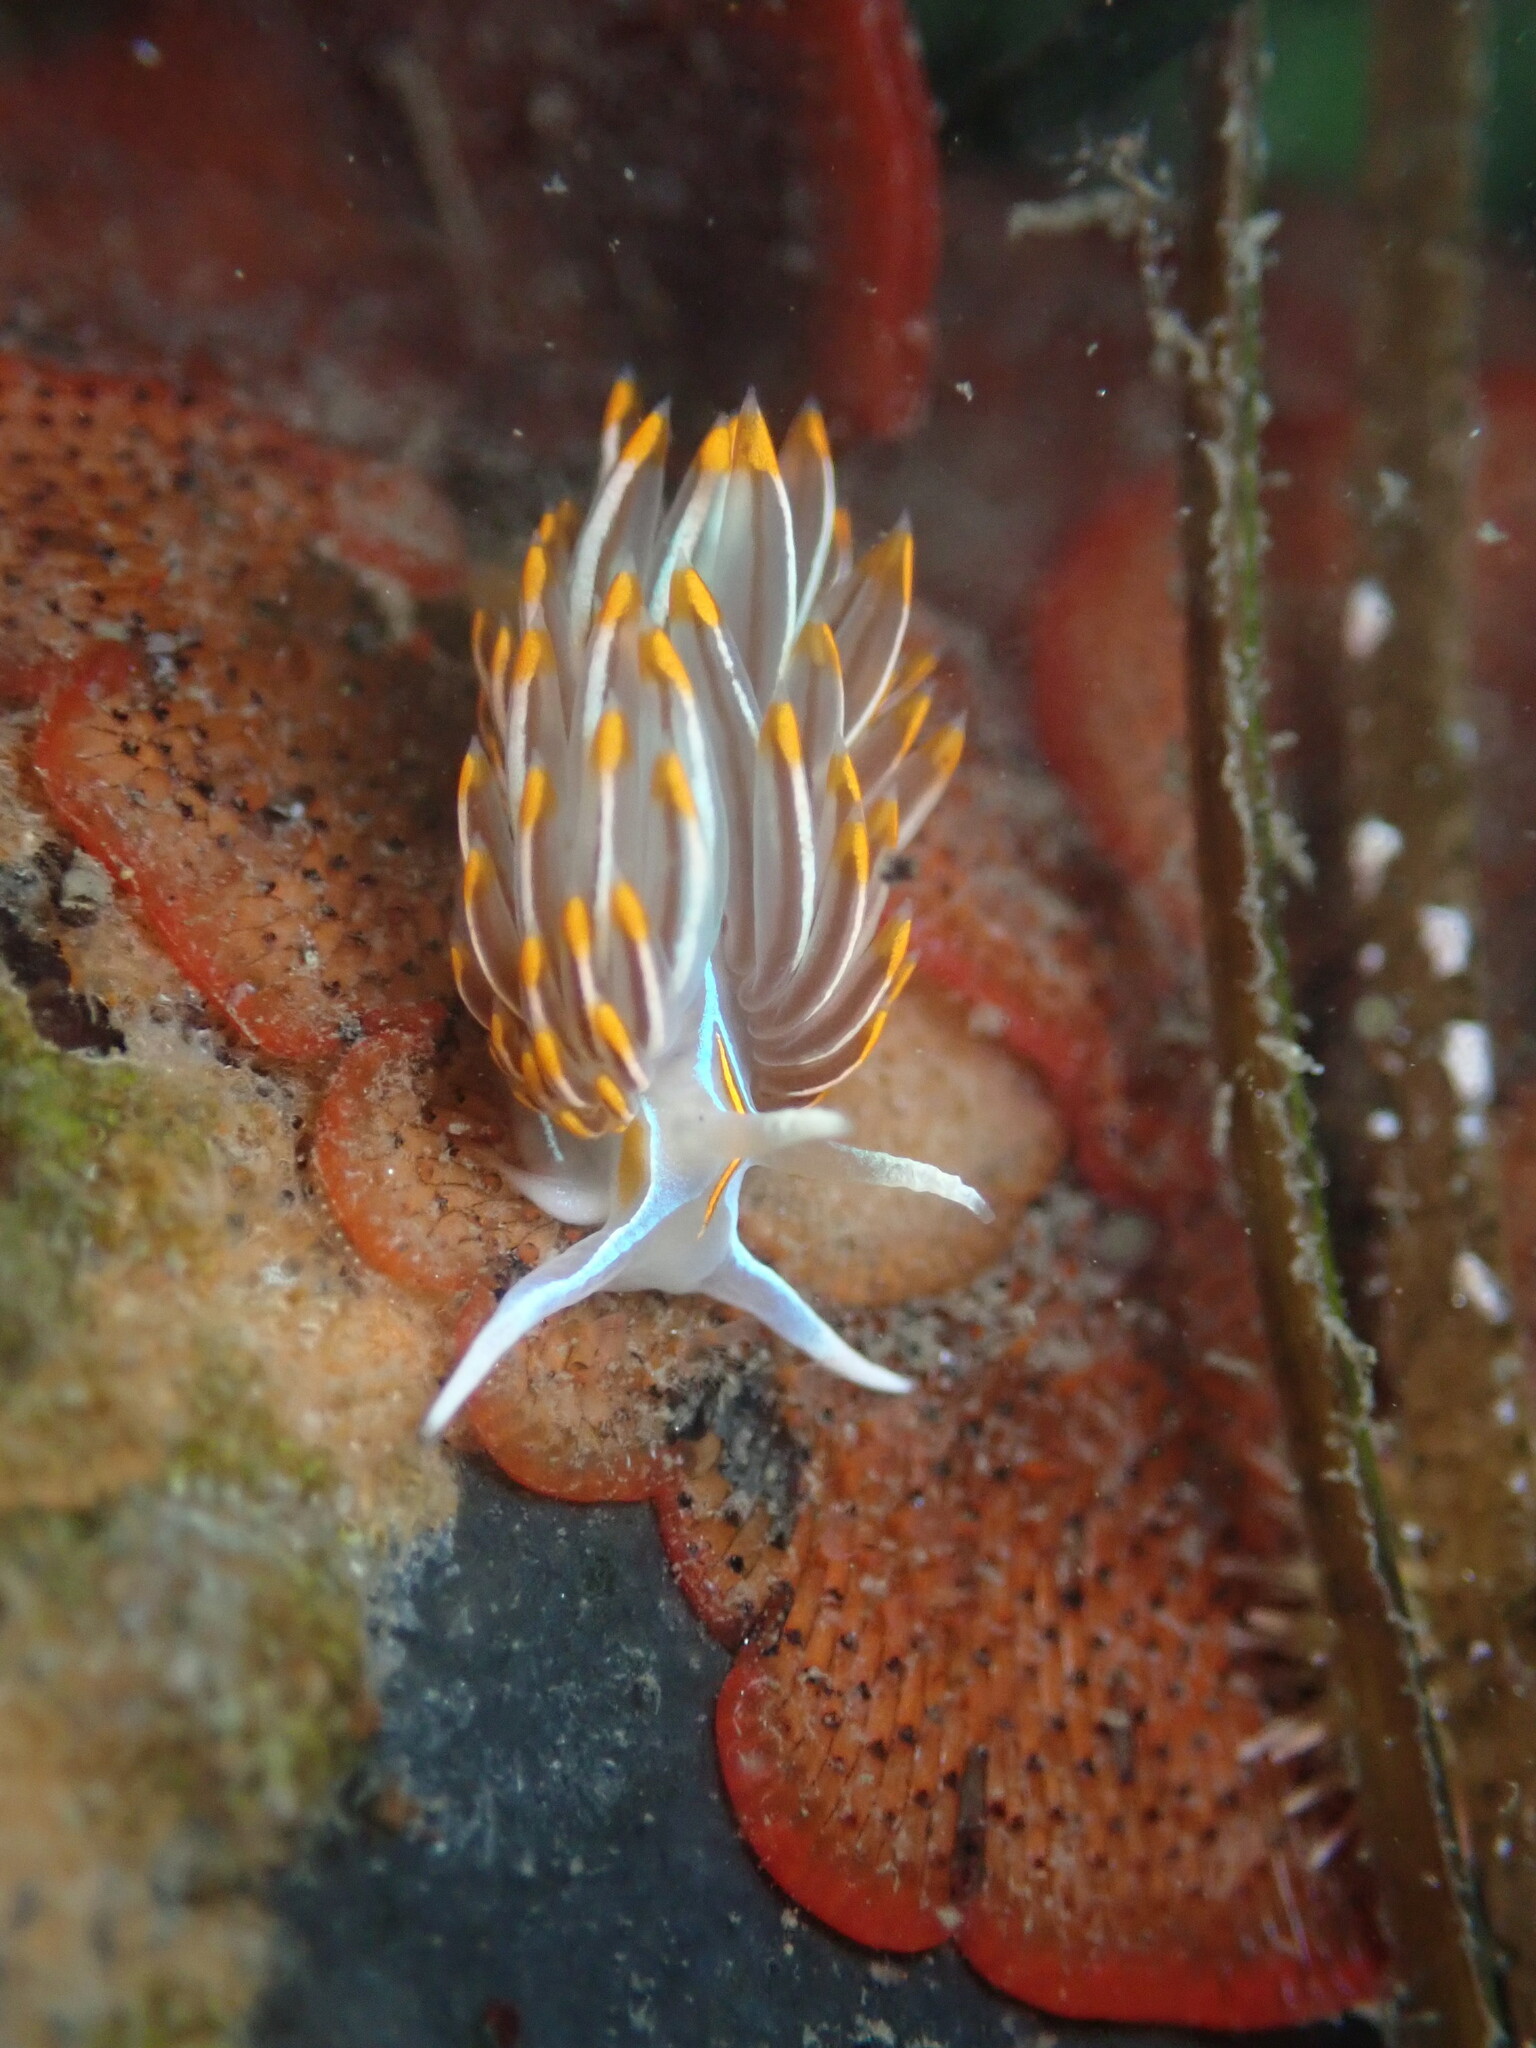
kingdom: Animalia
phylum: Mollusca
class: Gastropoda
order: Nudibranchia
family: Myrrhinidae
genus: Hermissenda
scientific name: Hermissenda crassicornis
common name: Hermissenda
